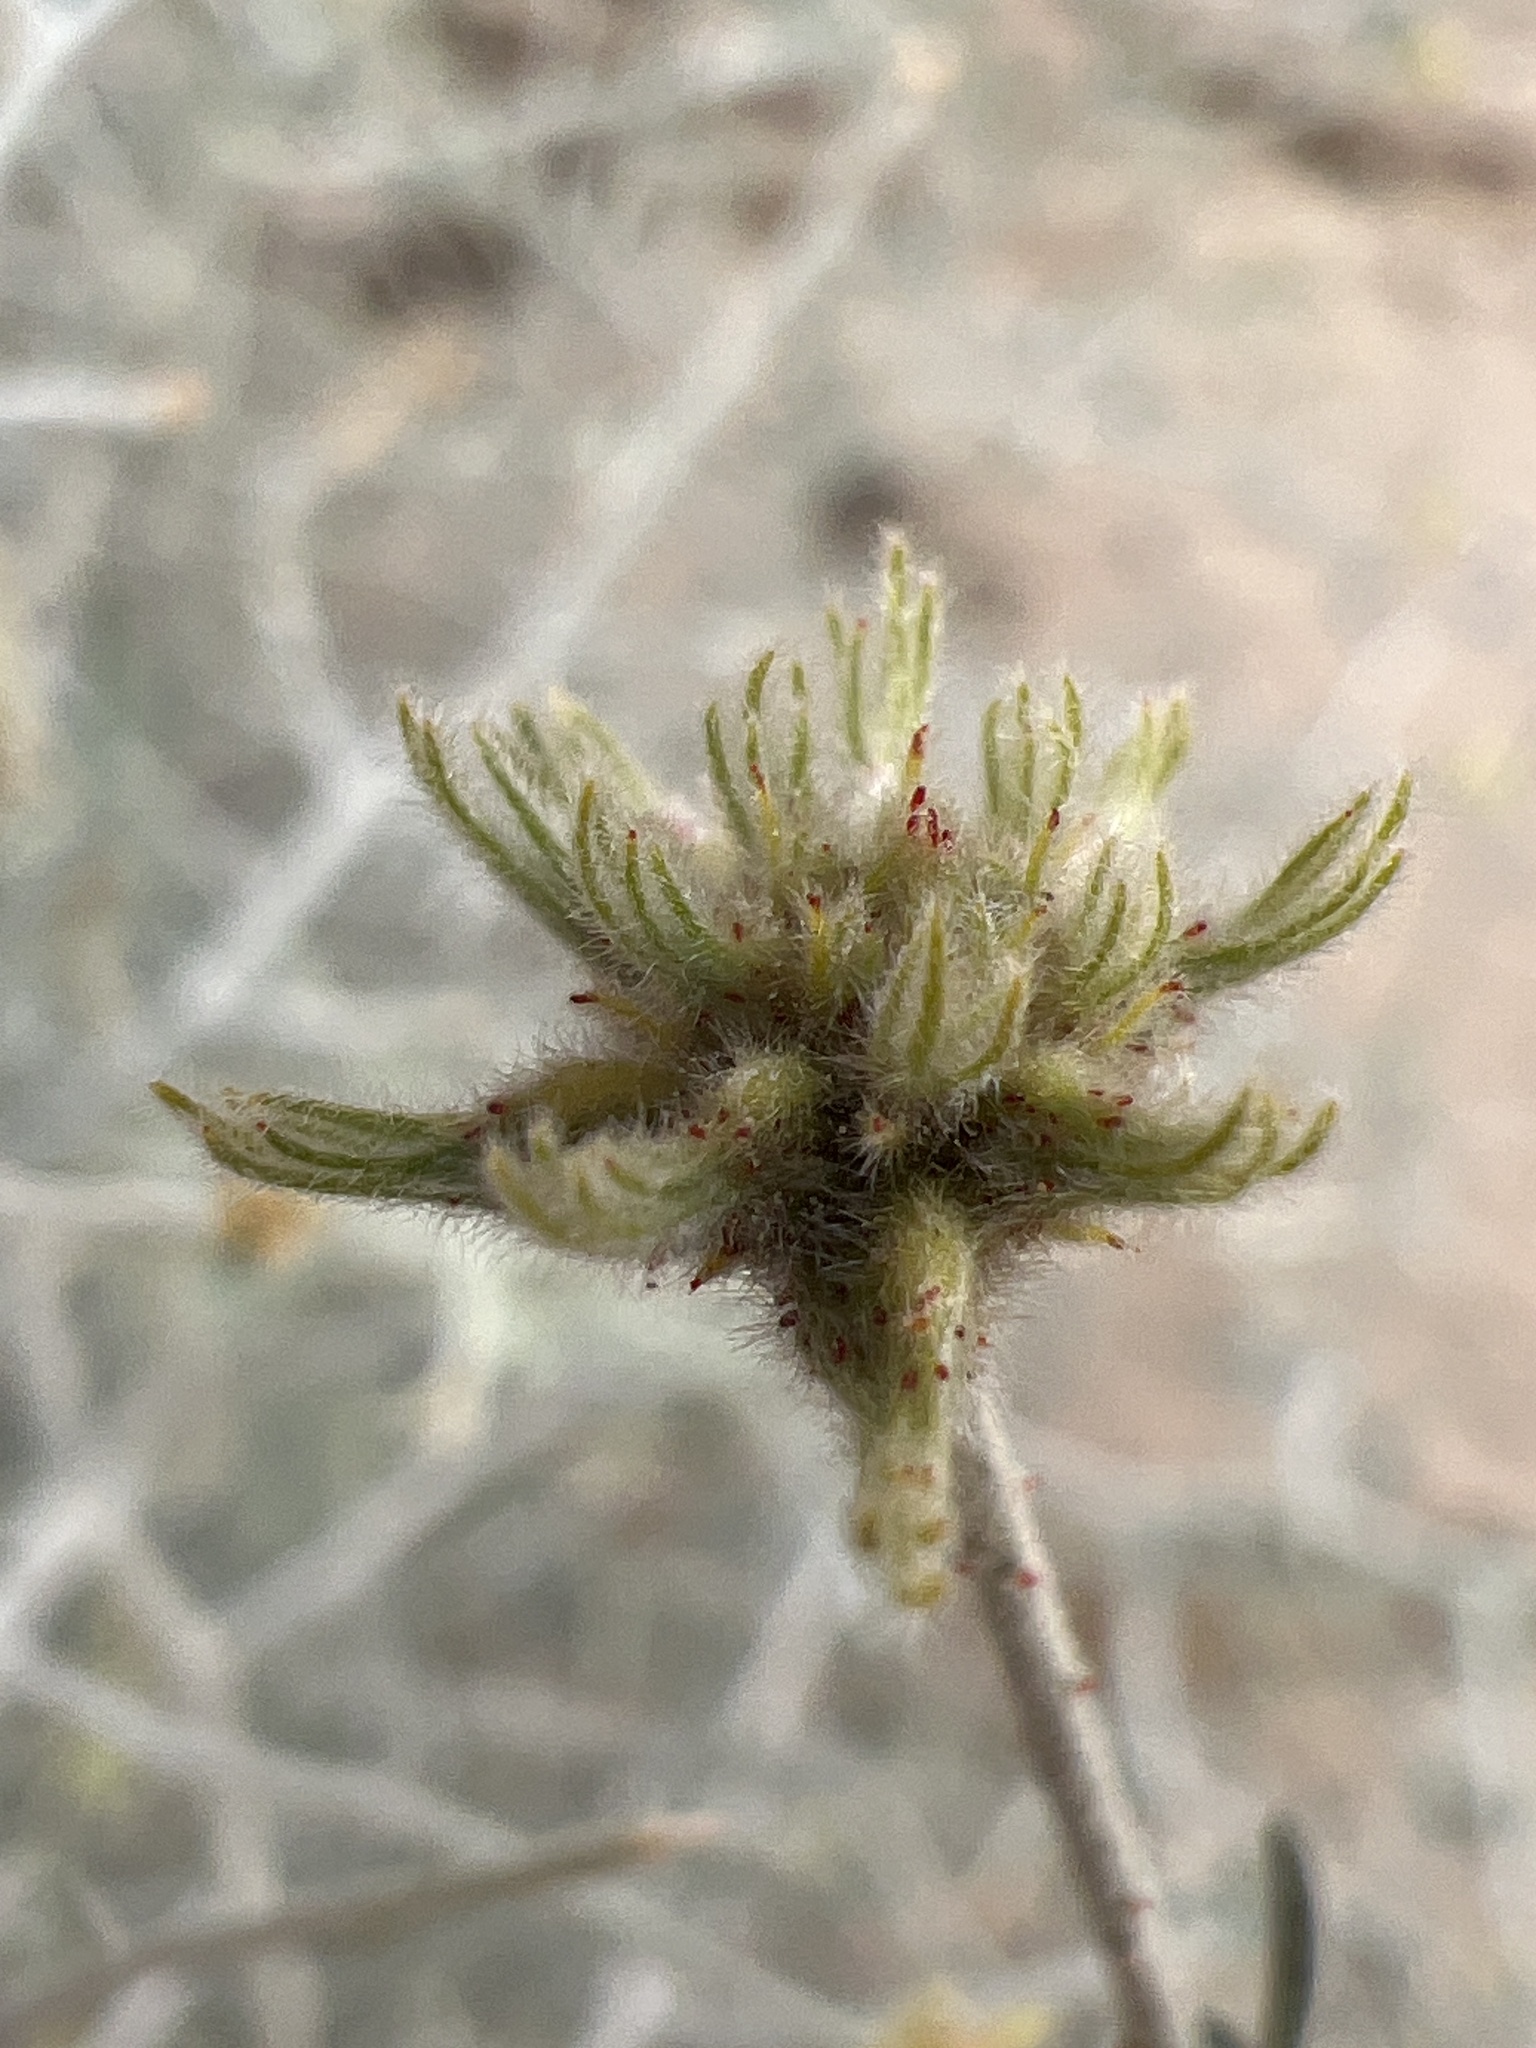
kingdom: Plantae
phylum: Tracheophyta
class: Magnoliopsida
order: Fabales
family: Fabaceae
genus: Psorothamnus
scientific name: Psorothamnus emoryi
